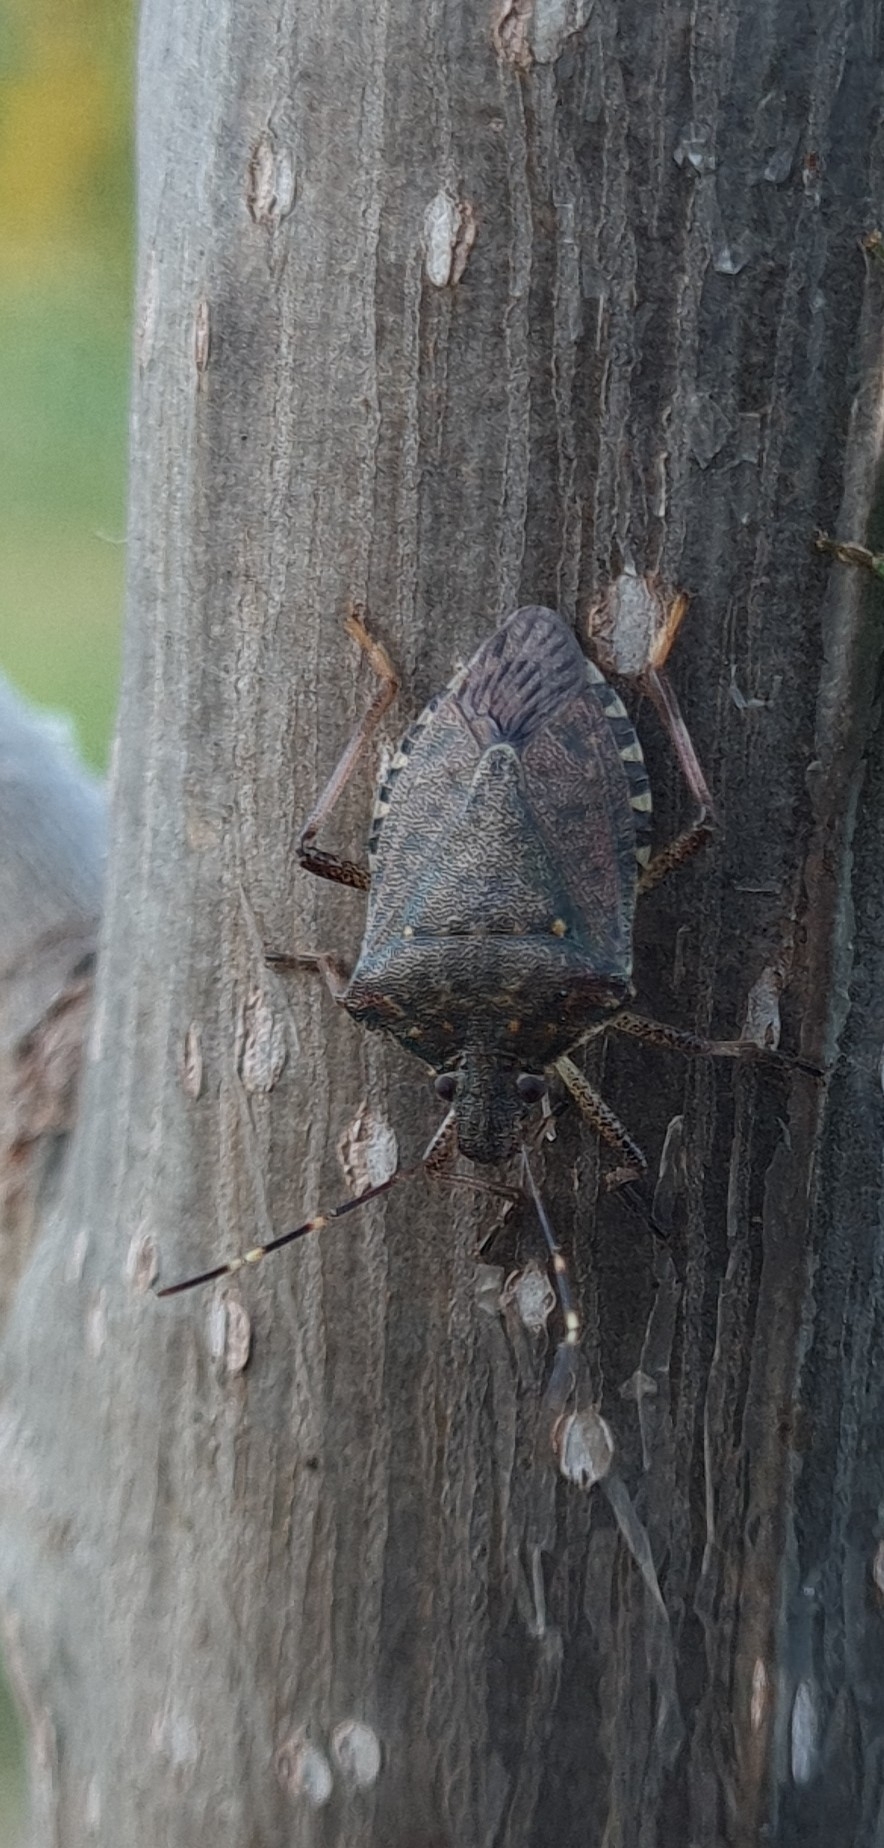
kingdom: Animalia
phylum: Arthropoda
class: Insecta
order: Hemiptera
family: Pentatomidae
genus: Halyomorpha
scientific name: Halyomorpha halys
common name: Brown marmorated stink bug
